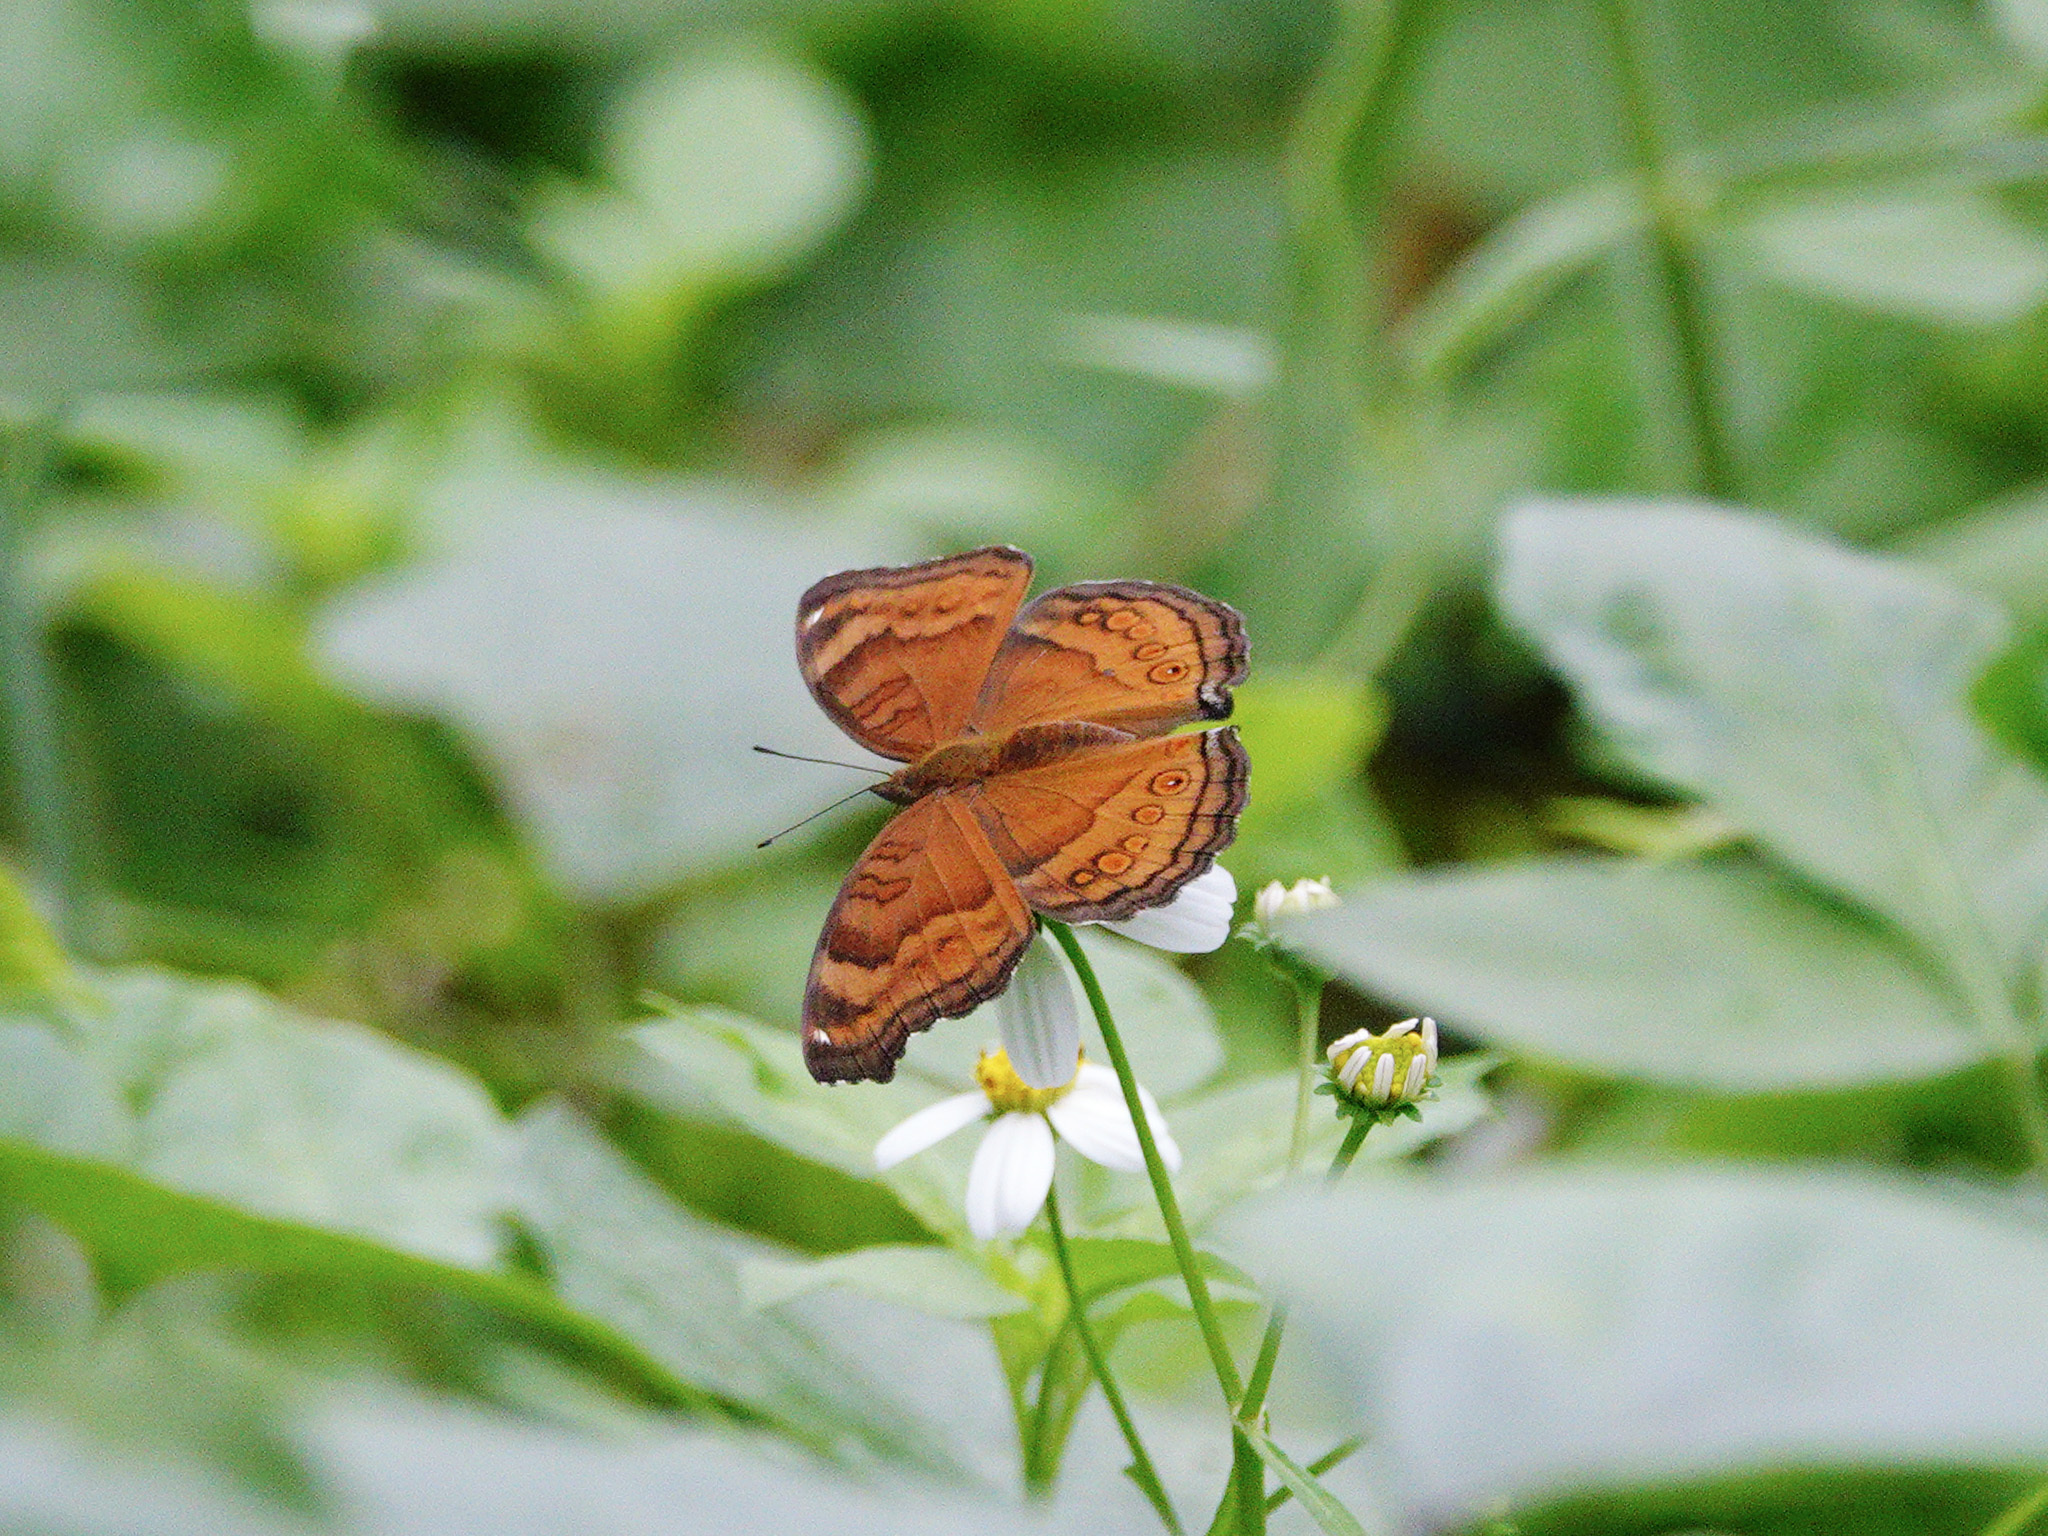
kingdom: Animalia
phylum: Arthropoda
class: Insecta
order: Lepidoptera
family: Nymphalidae
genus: Junonia
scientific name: Junonia hedonia
